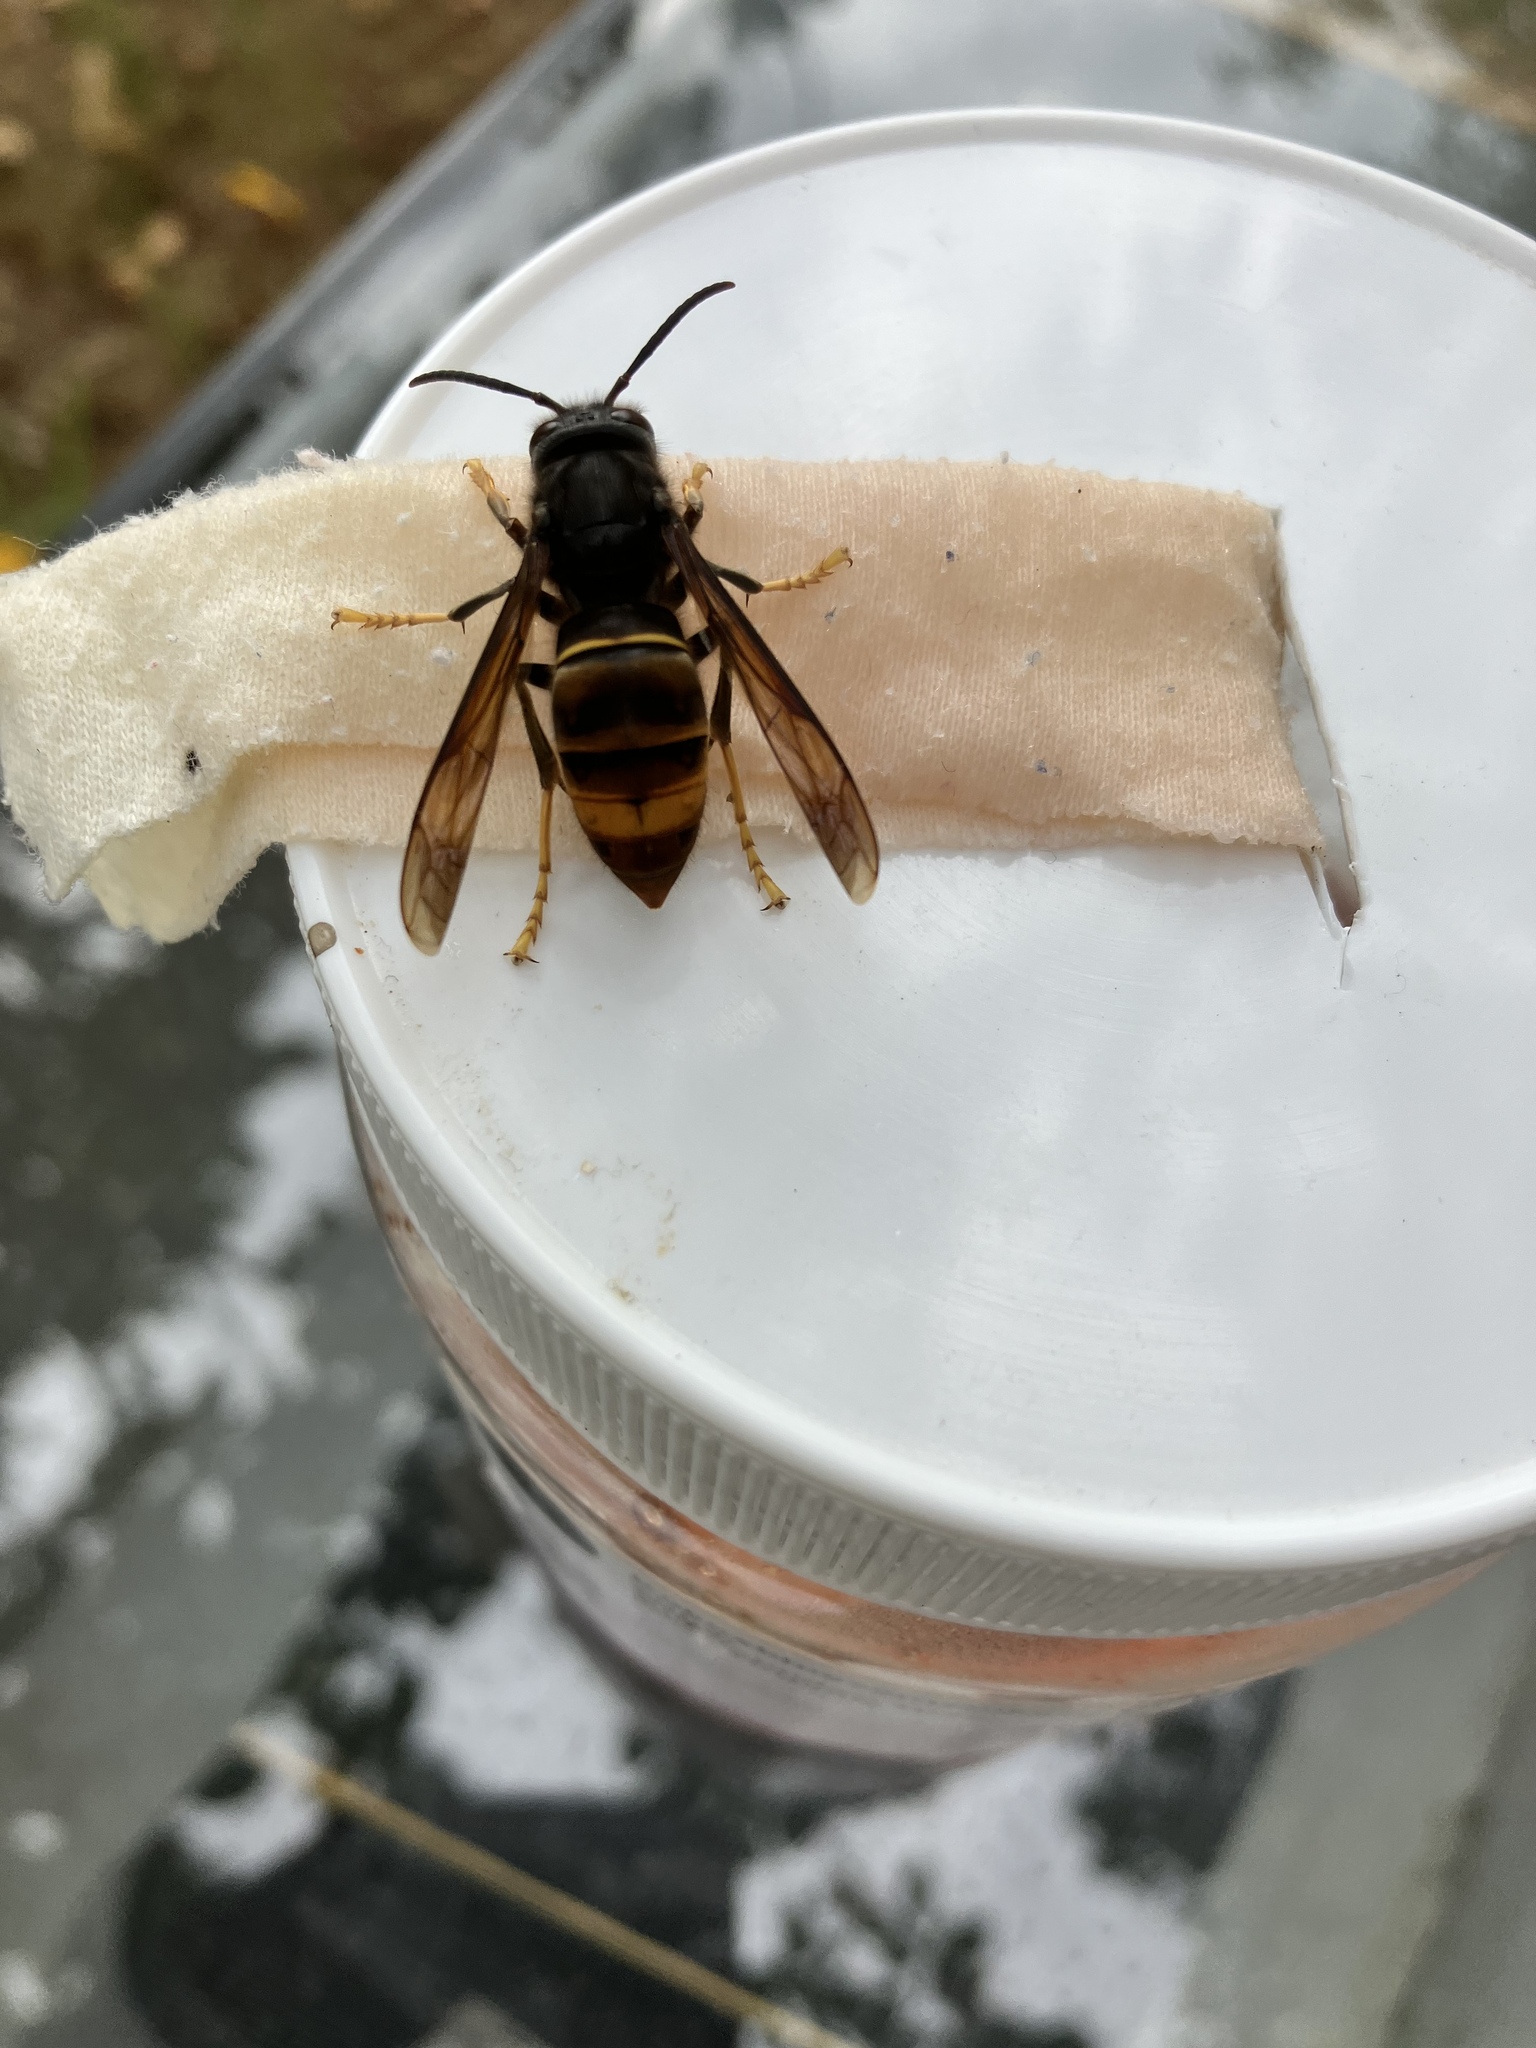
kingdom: Animalia
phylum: Arthropoda
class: Insecta
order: Hymenoptera
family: Vespidae
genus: Vespa
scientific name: Vespa velutina
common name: Asian hornet
